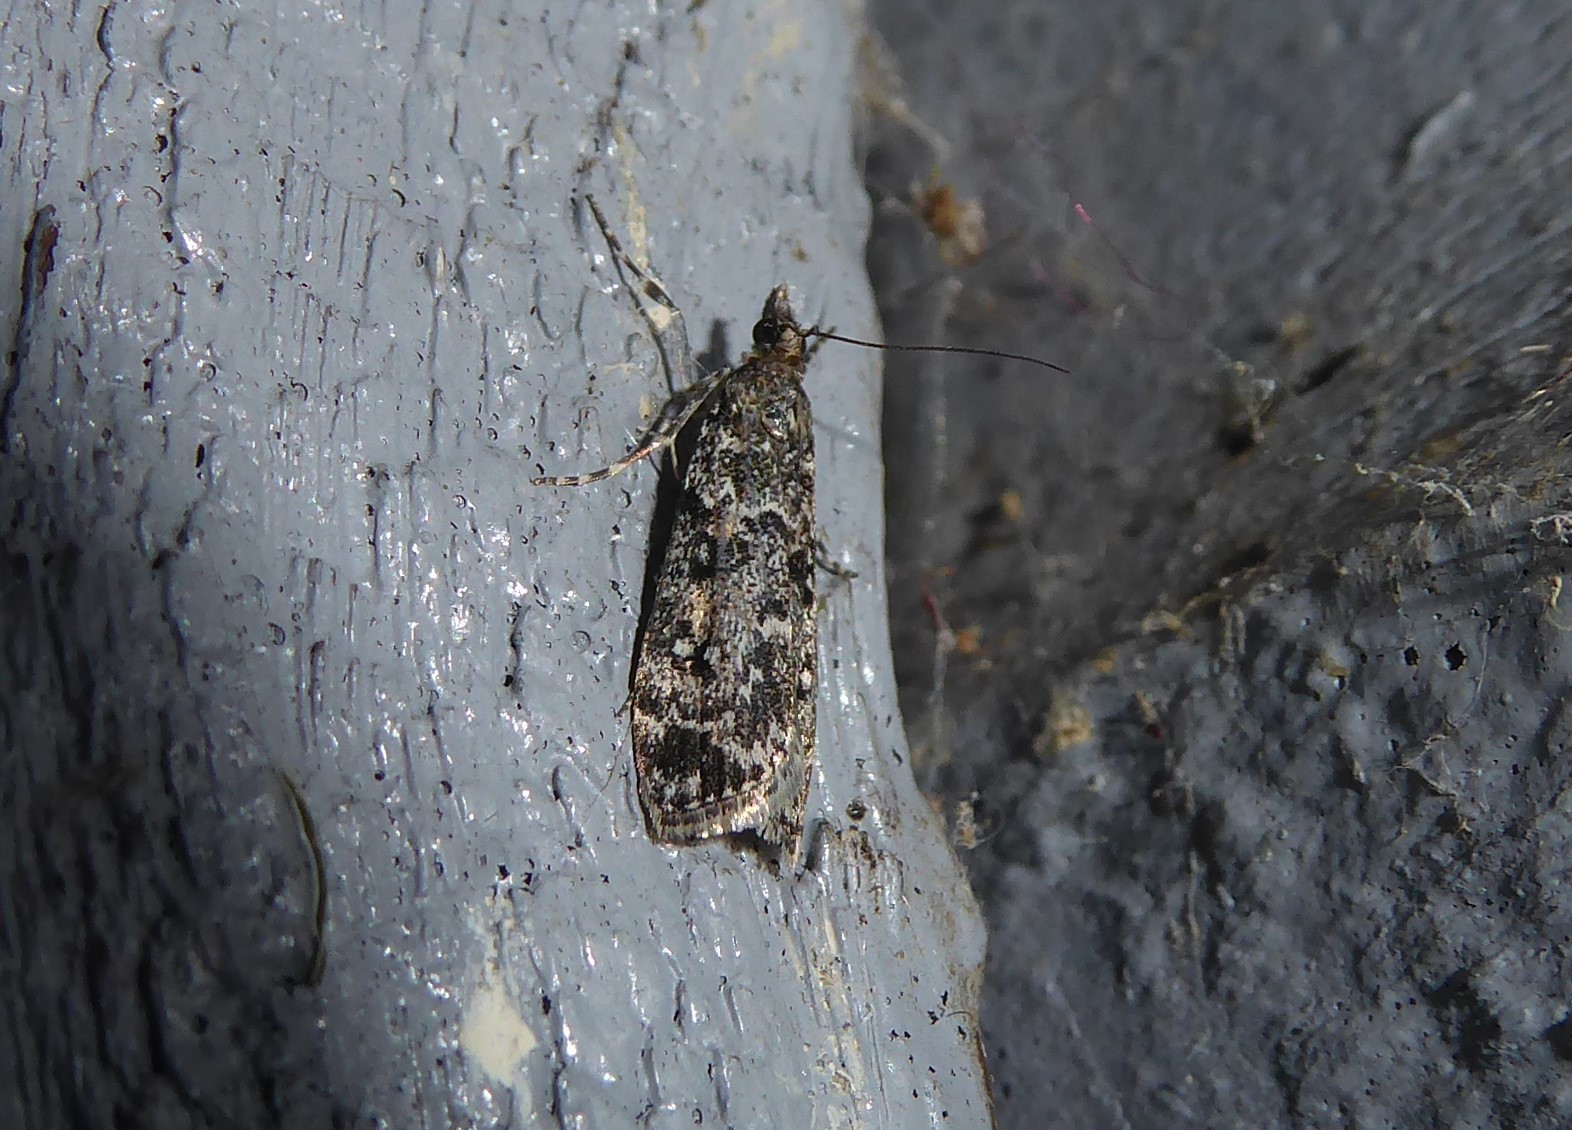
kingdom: Animalia
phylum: Arthropoda
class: Insecta
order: Lepidoptera
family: Crambidae
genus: Eudonia
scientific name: Eudonia philerga
